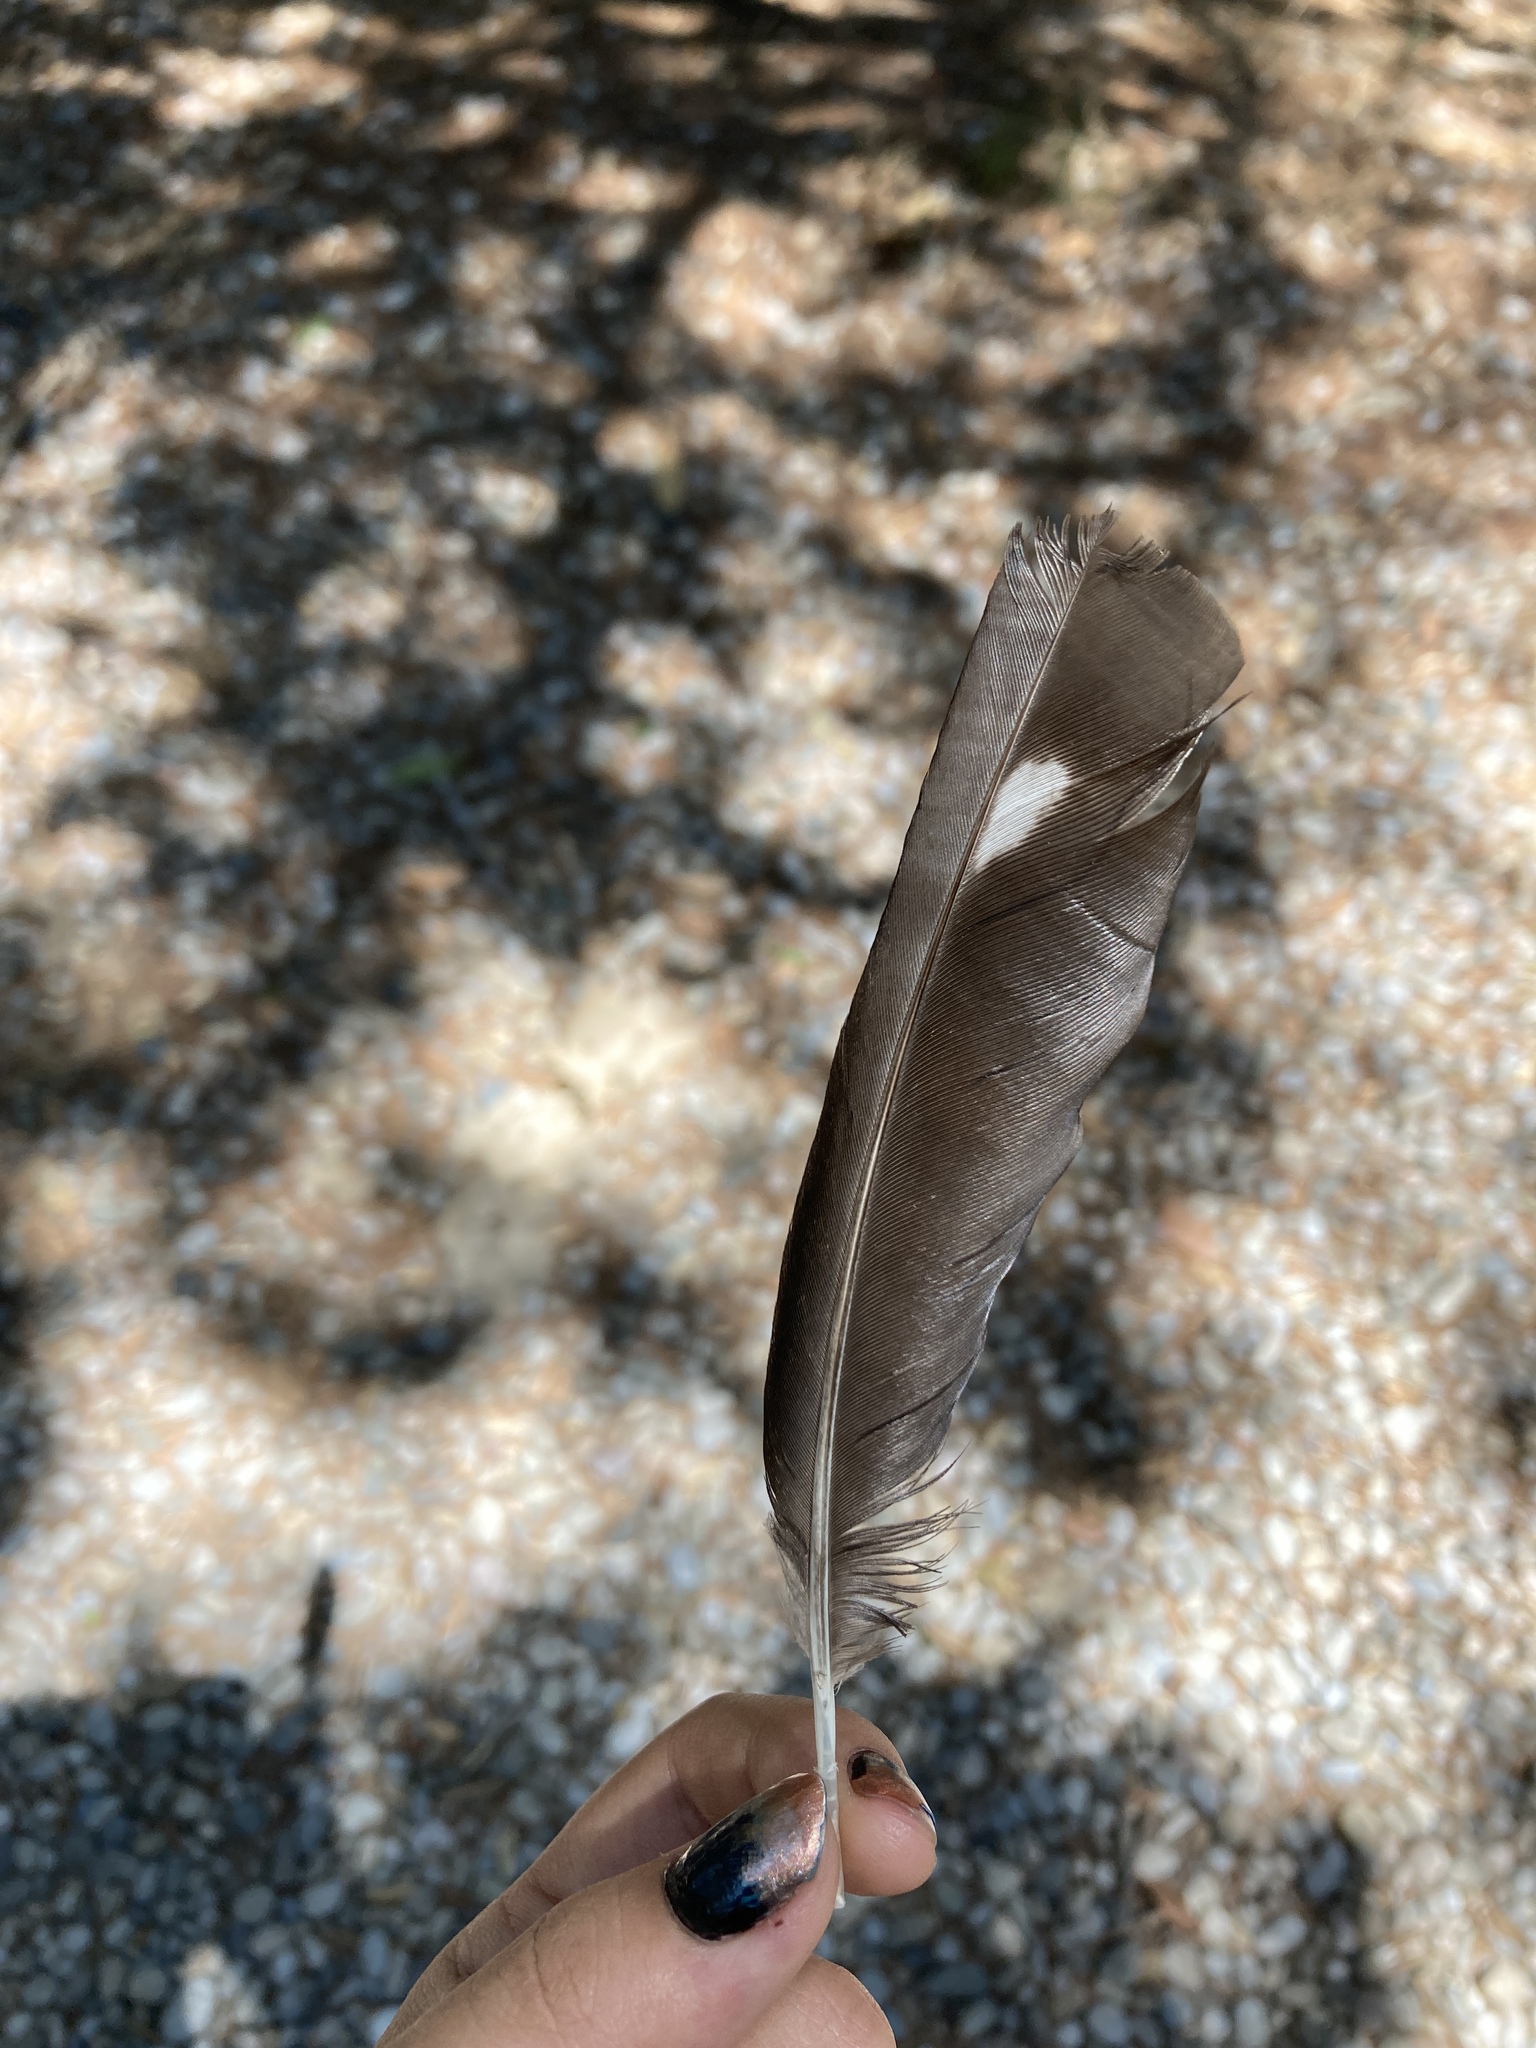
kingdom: Animalia
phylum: Chordata
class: Aves
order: Passeriformes
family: Corvidae
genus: Pica
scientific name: Pica pica
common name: Eurasian magpie
